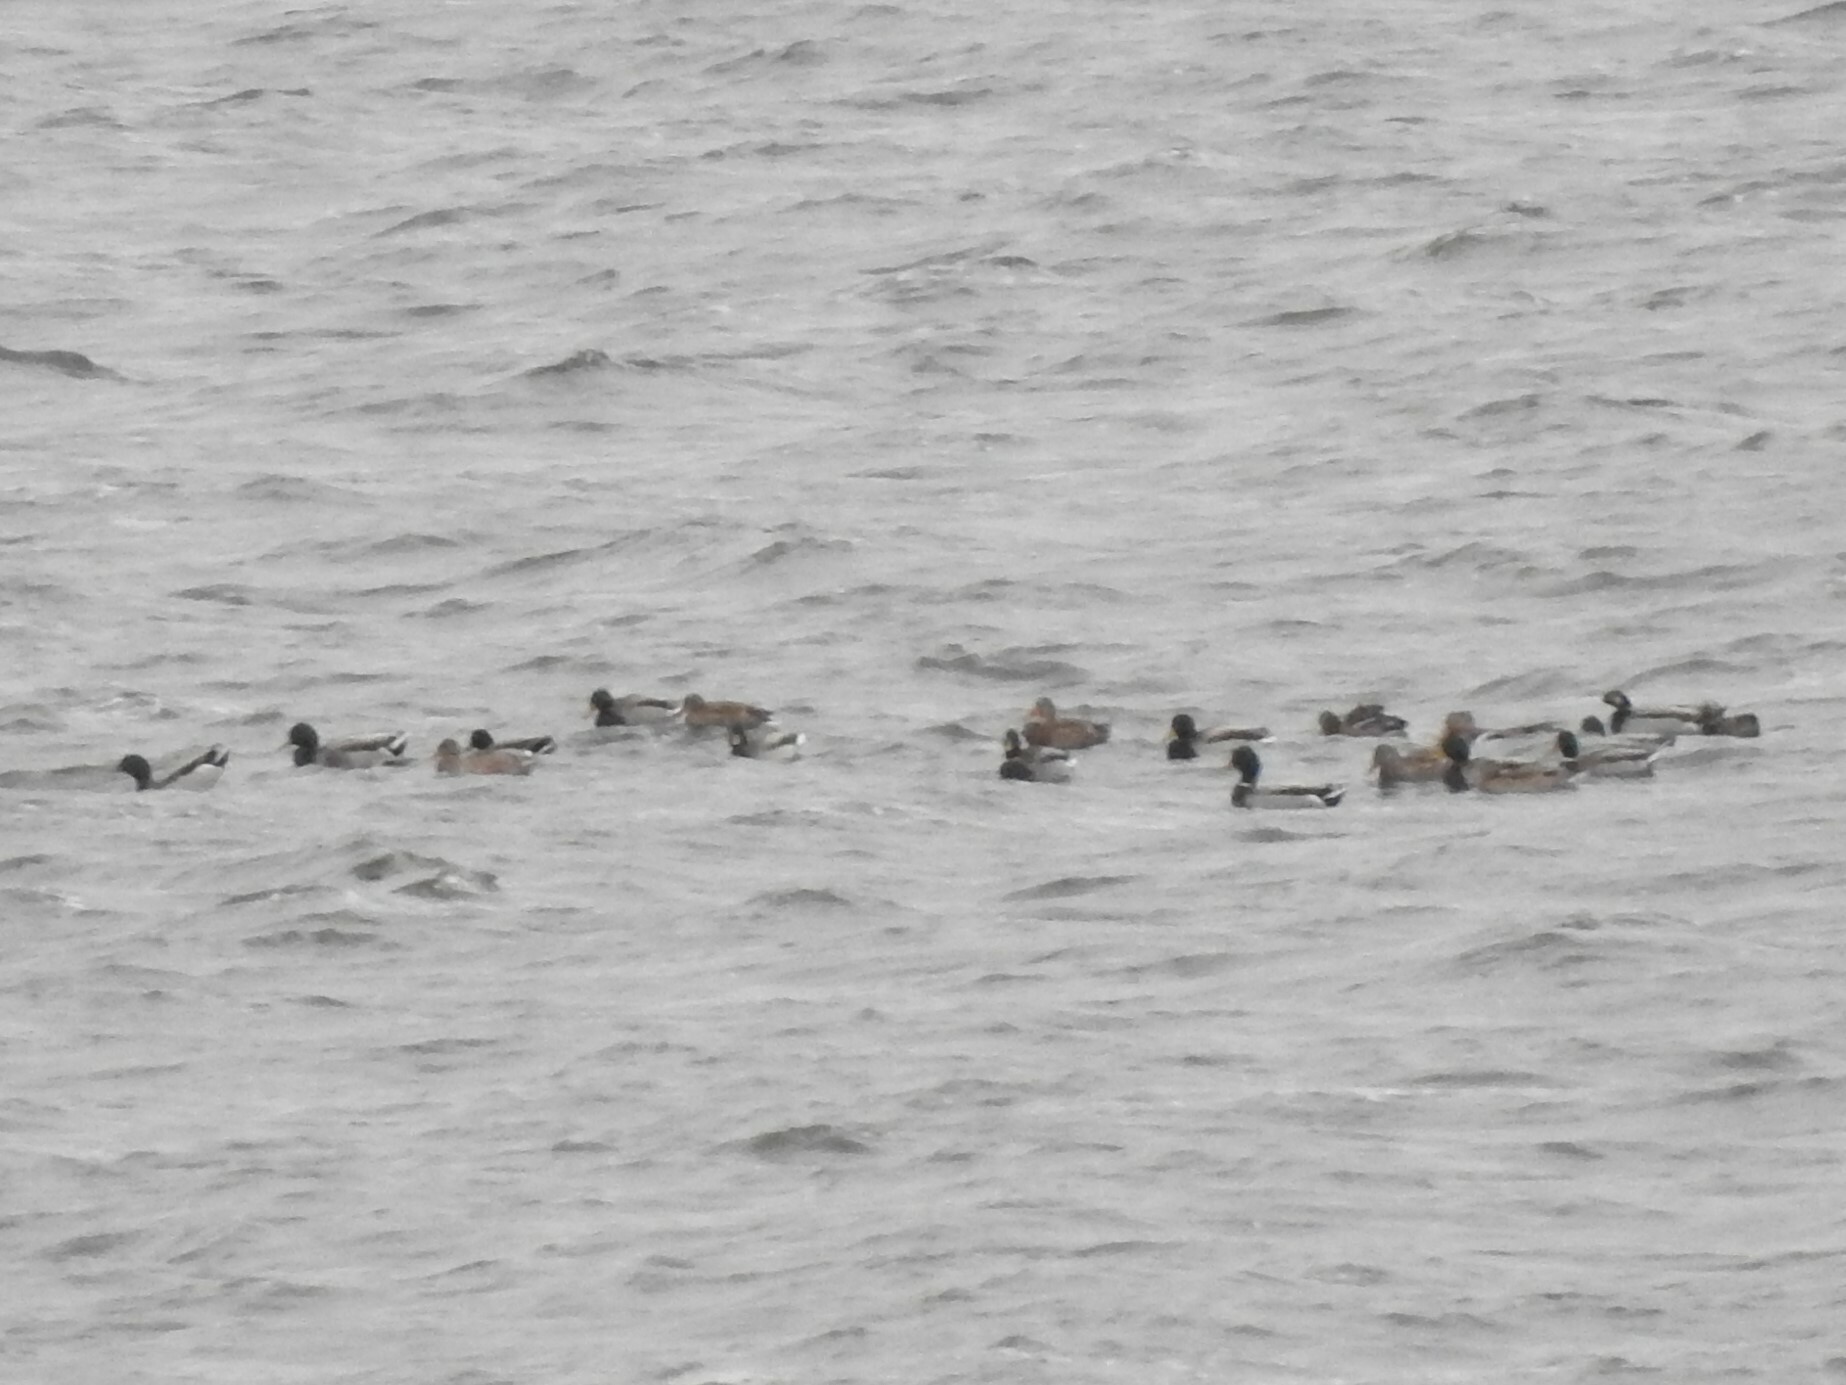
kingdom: Animalia
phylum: Chordata
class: Aves
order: Anseriformes
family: Anatidae
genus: Anas
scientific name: Anas platyrhynchos
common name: Mallard
